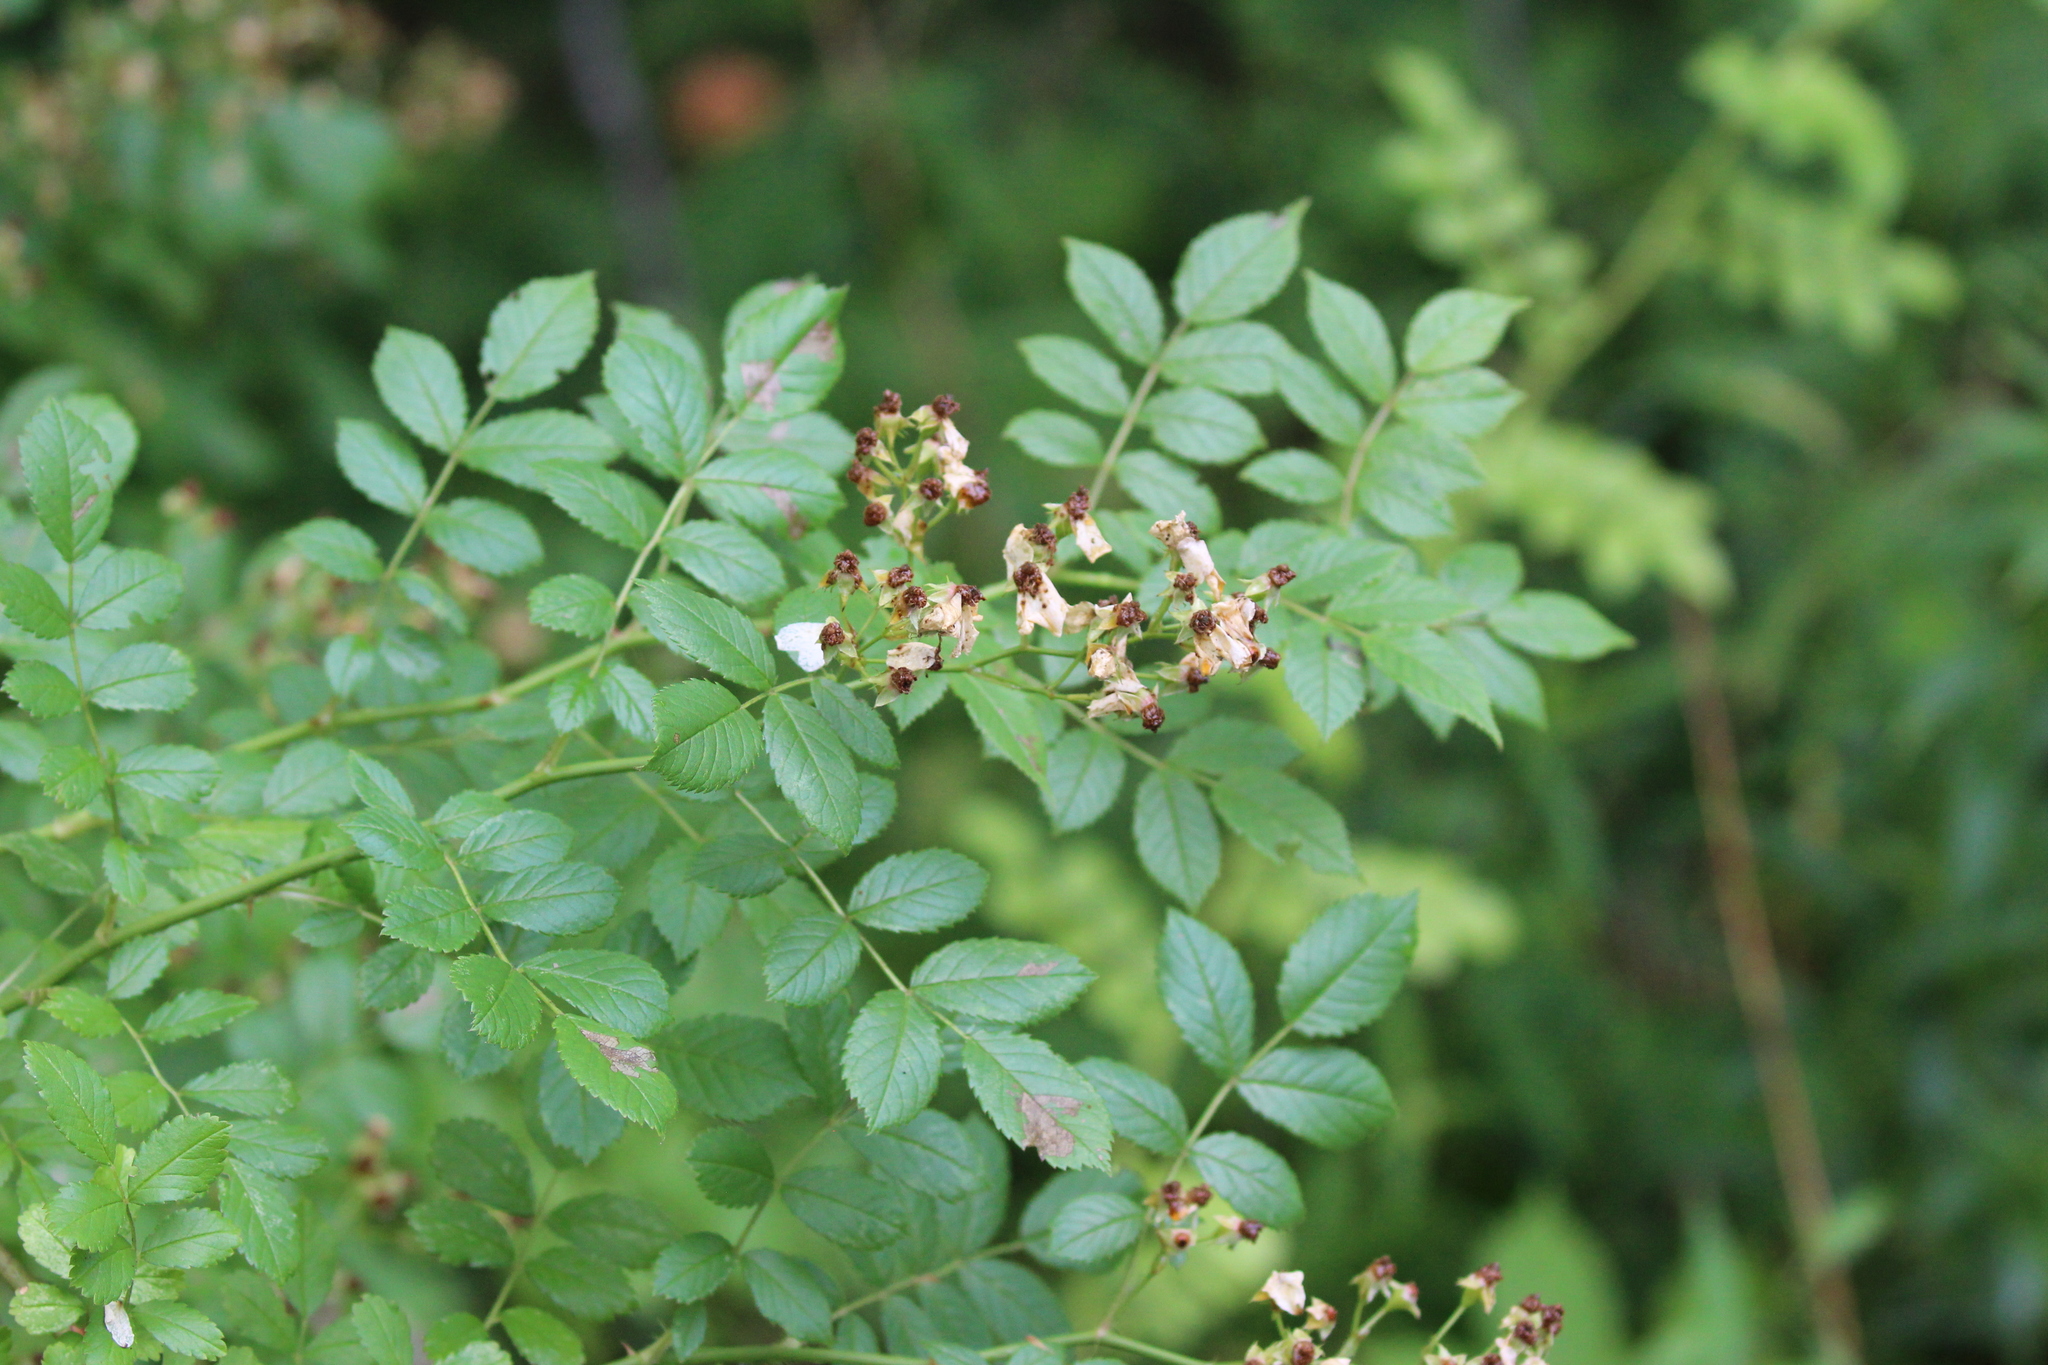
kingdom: Plantae
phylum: Tracheophyta
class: Magnoliopsida
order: Rosales
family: Rosaceae
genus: Rosa
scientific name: Rosa multiflora
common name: Multiflora rose
